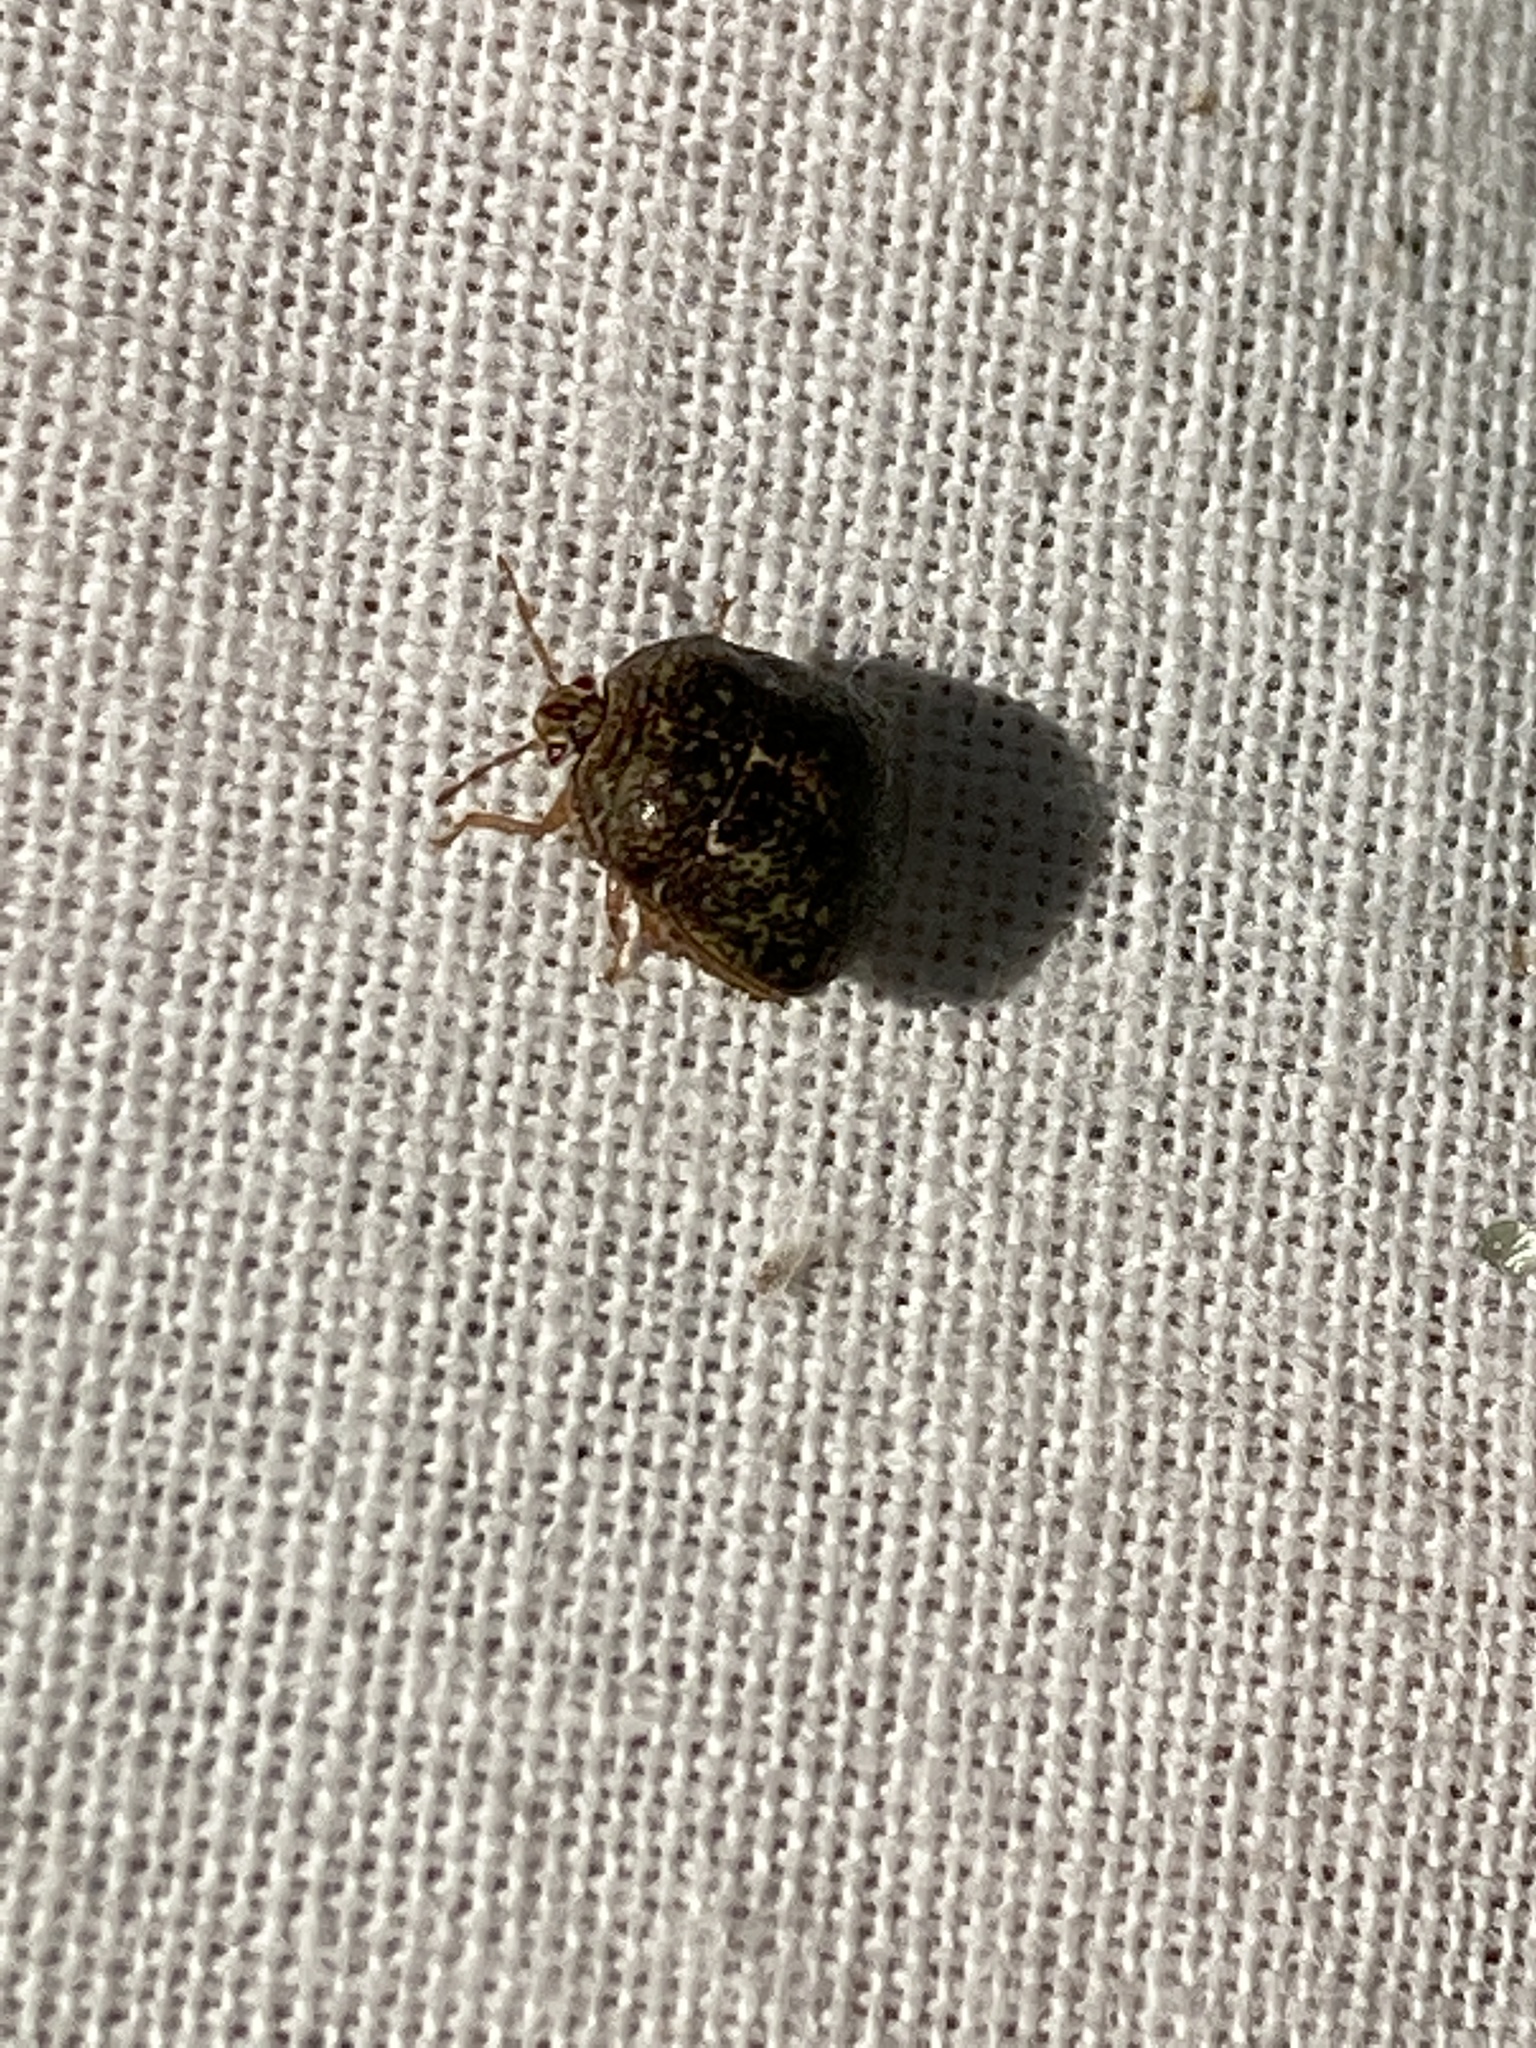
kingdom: Animalia
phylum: Arthropoda
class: Insecta
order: Hemiptera
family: Plataspidae
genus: Megacopta
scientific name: Megacopta cribraria
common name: Bean plataspid
